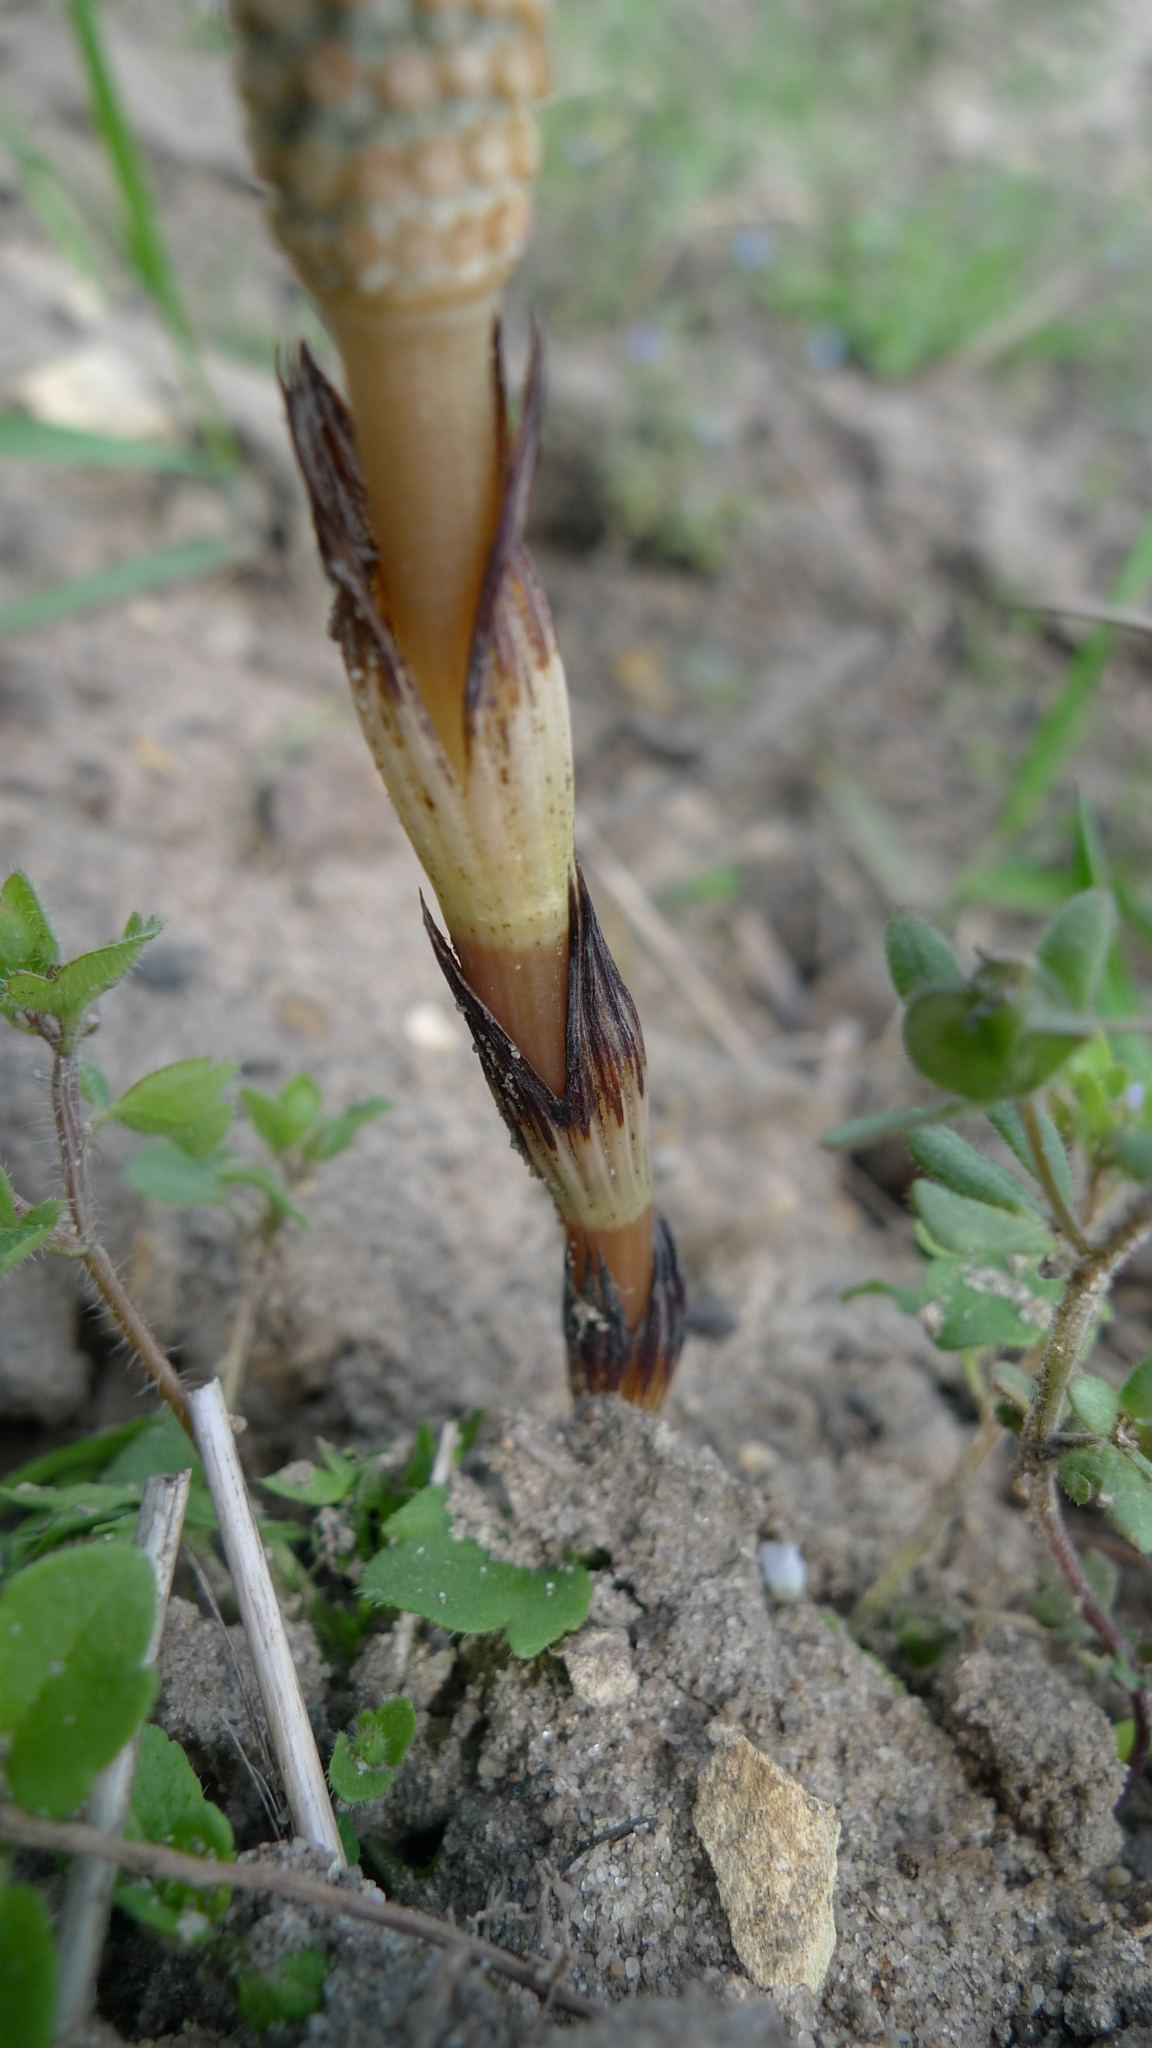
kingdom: Plantae
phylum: Tracheophyta
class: Polypodiopsida
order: Equisetales
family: Equisetaceae
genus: Equisetum
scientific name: Equisetum arvense
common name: Field horsetail
